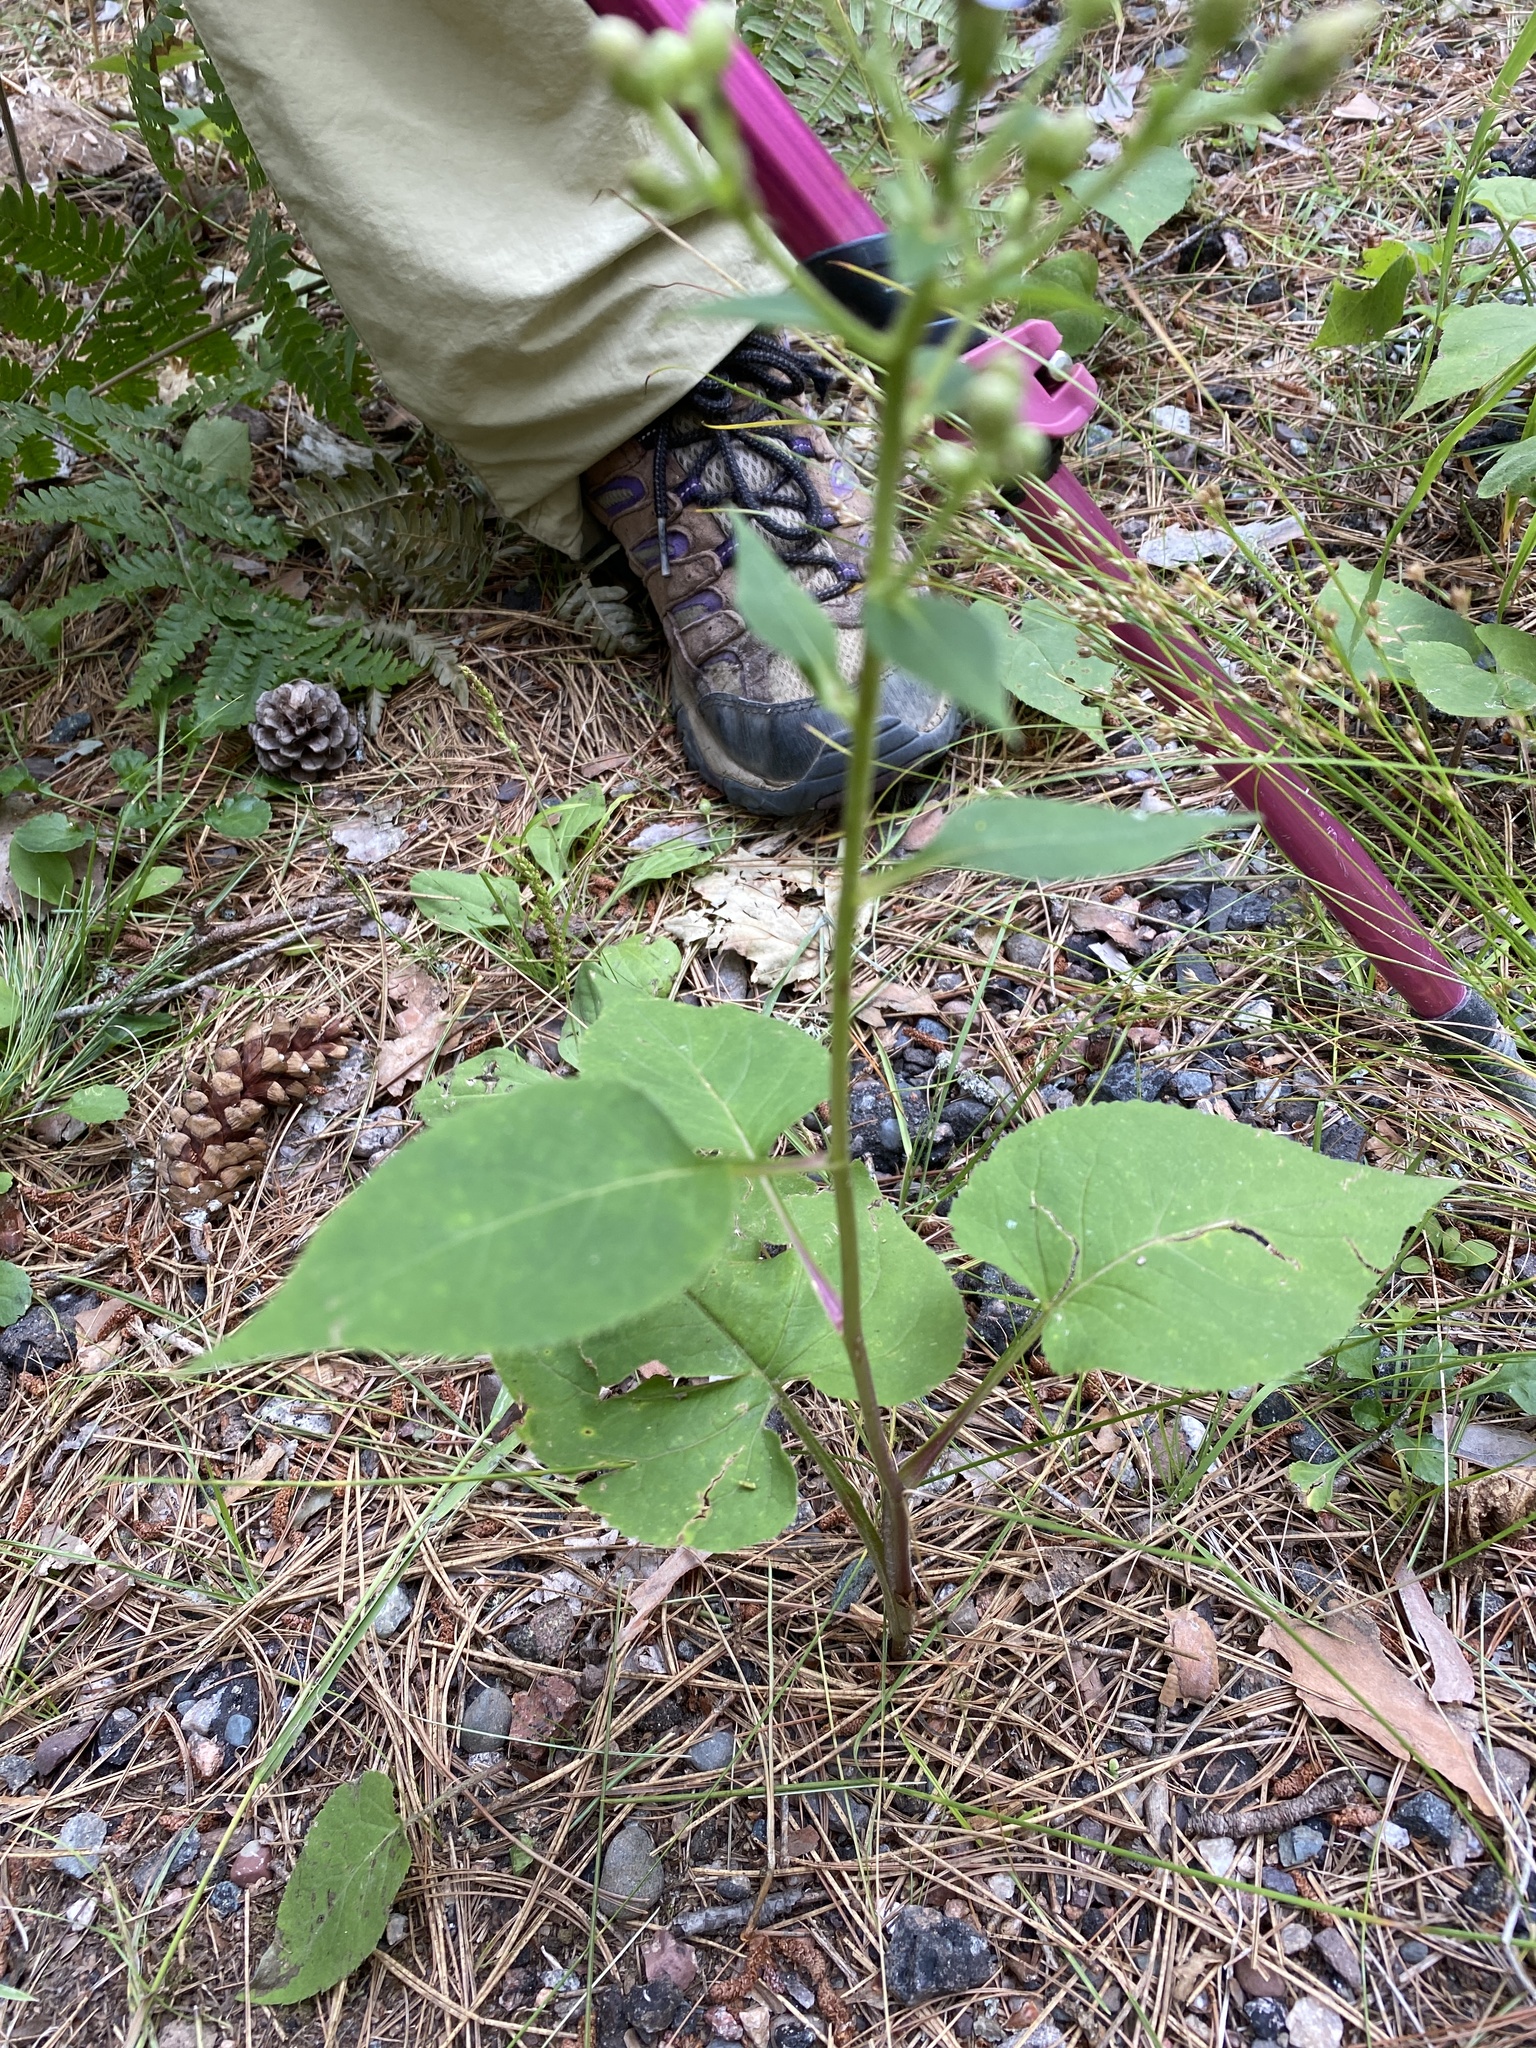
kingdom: Plantae
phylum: Tracheophyta
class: Magnoliopsida
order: Asterales
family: Asteraceae
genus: Eurybia
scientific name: Eurybia macrophylla
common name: Big-leaved aster
